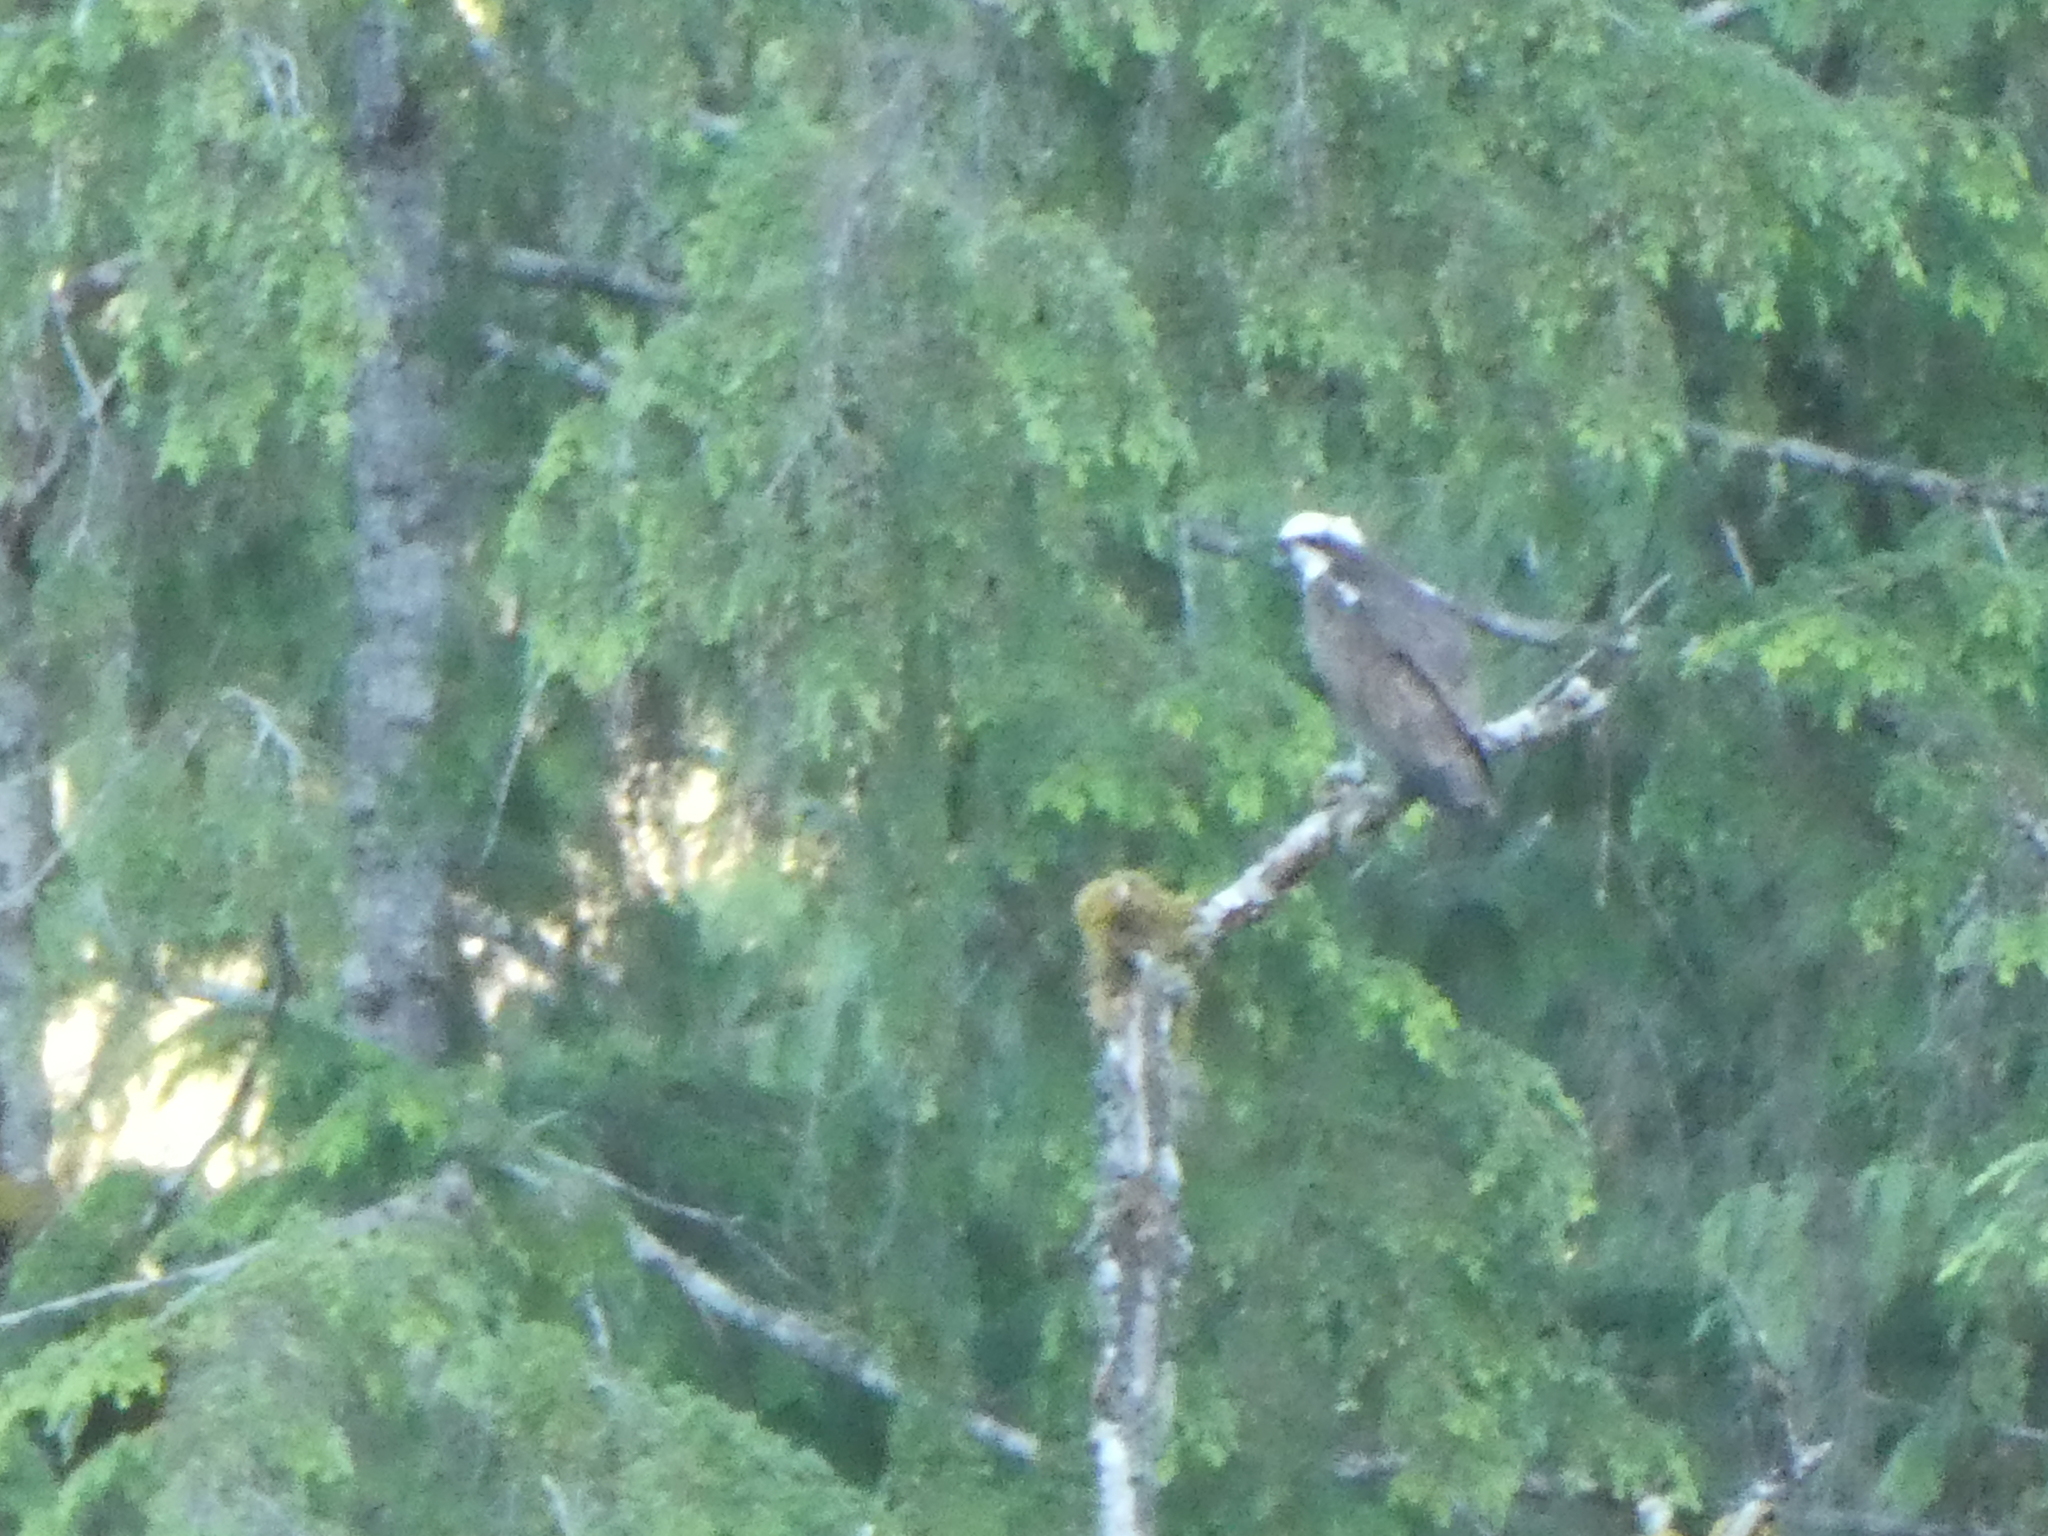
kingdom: Animalia
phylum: Chordata
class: Aves
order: Accipitriformes
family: Pandionidae
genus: Pandion
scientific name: Pandion haliaetus
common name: Osprey
